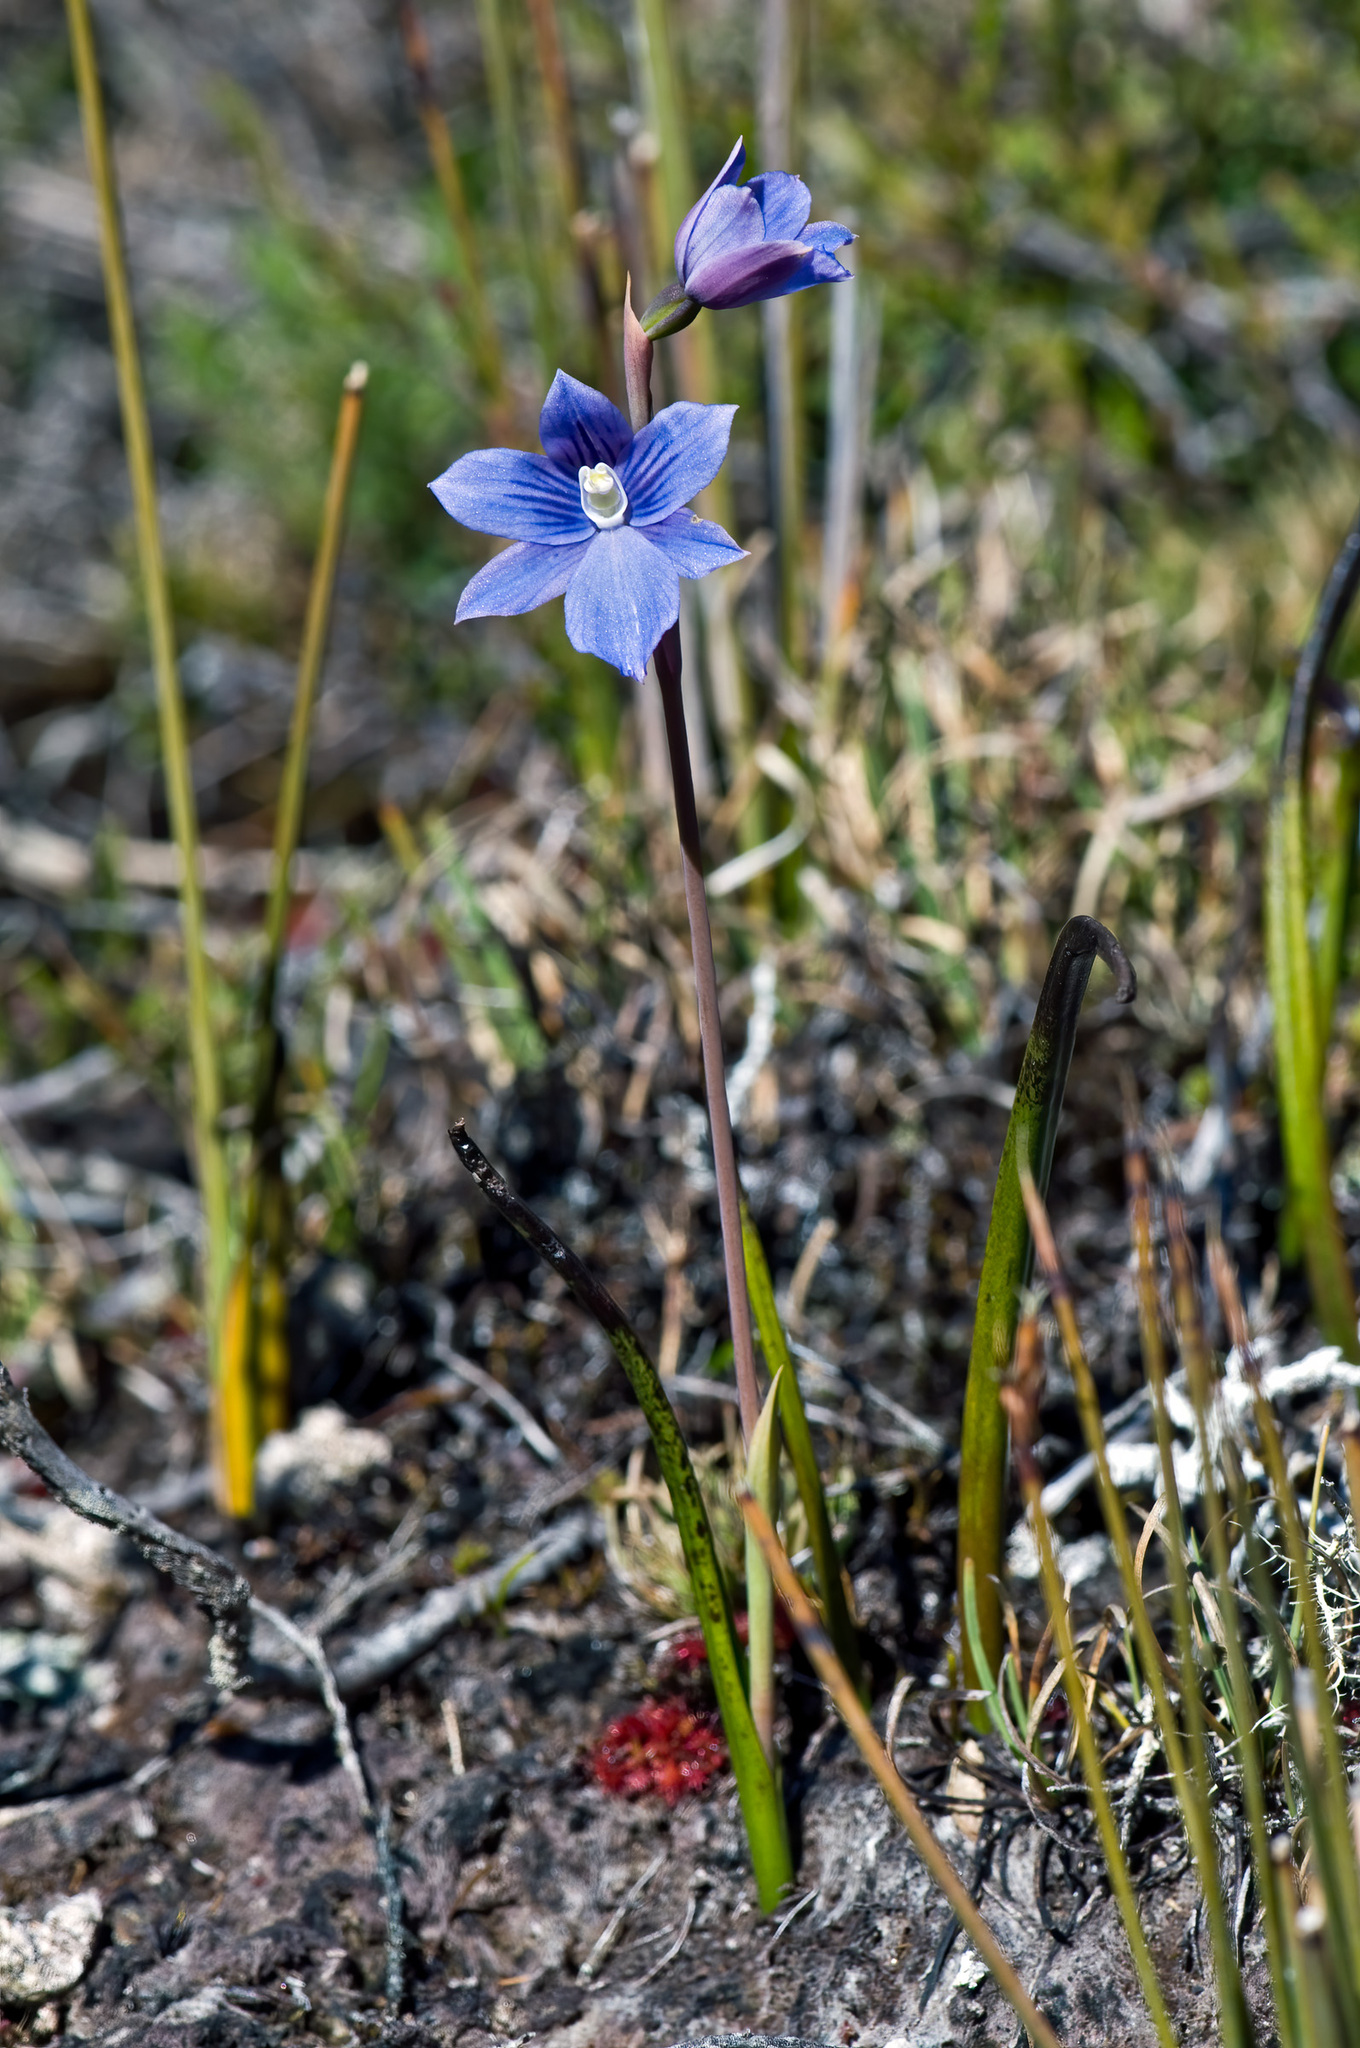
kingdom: Plantae
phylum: Tracheophyta
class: Liliopsida
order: Asparagales
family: Orchidaceae
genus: Thelymitra
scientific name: Thelymitra cyanea
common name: Blue sun-orchid
